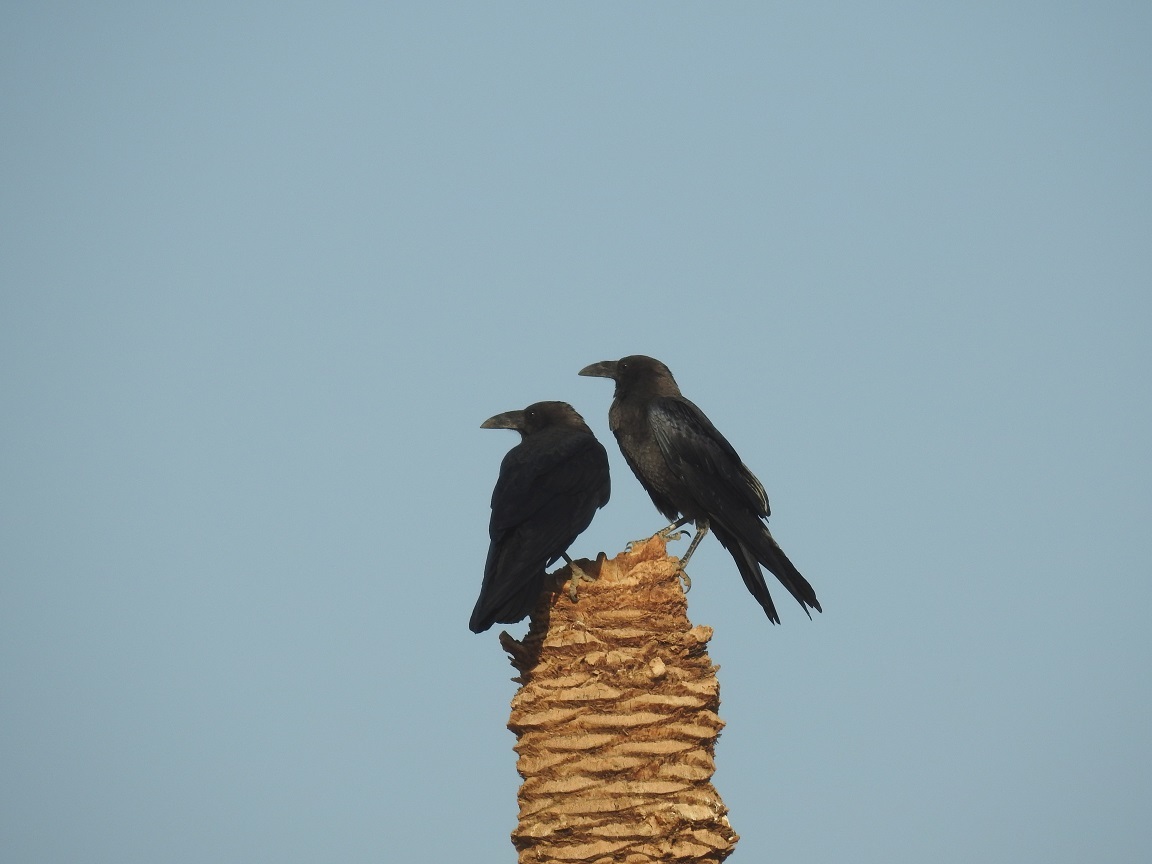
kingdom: Animalia
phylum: Chordata
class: Aves
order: Passeriformes
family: Corvidae
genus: Corvus
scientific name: Corvus ruficollis
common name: Brown-necked raven
